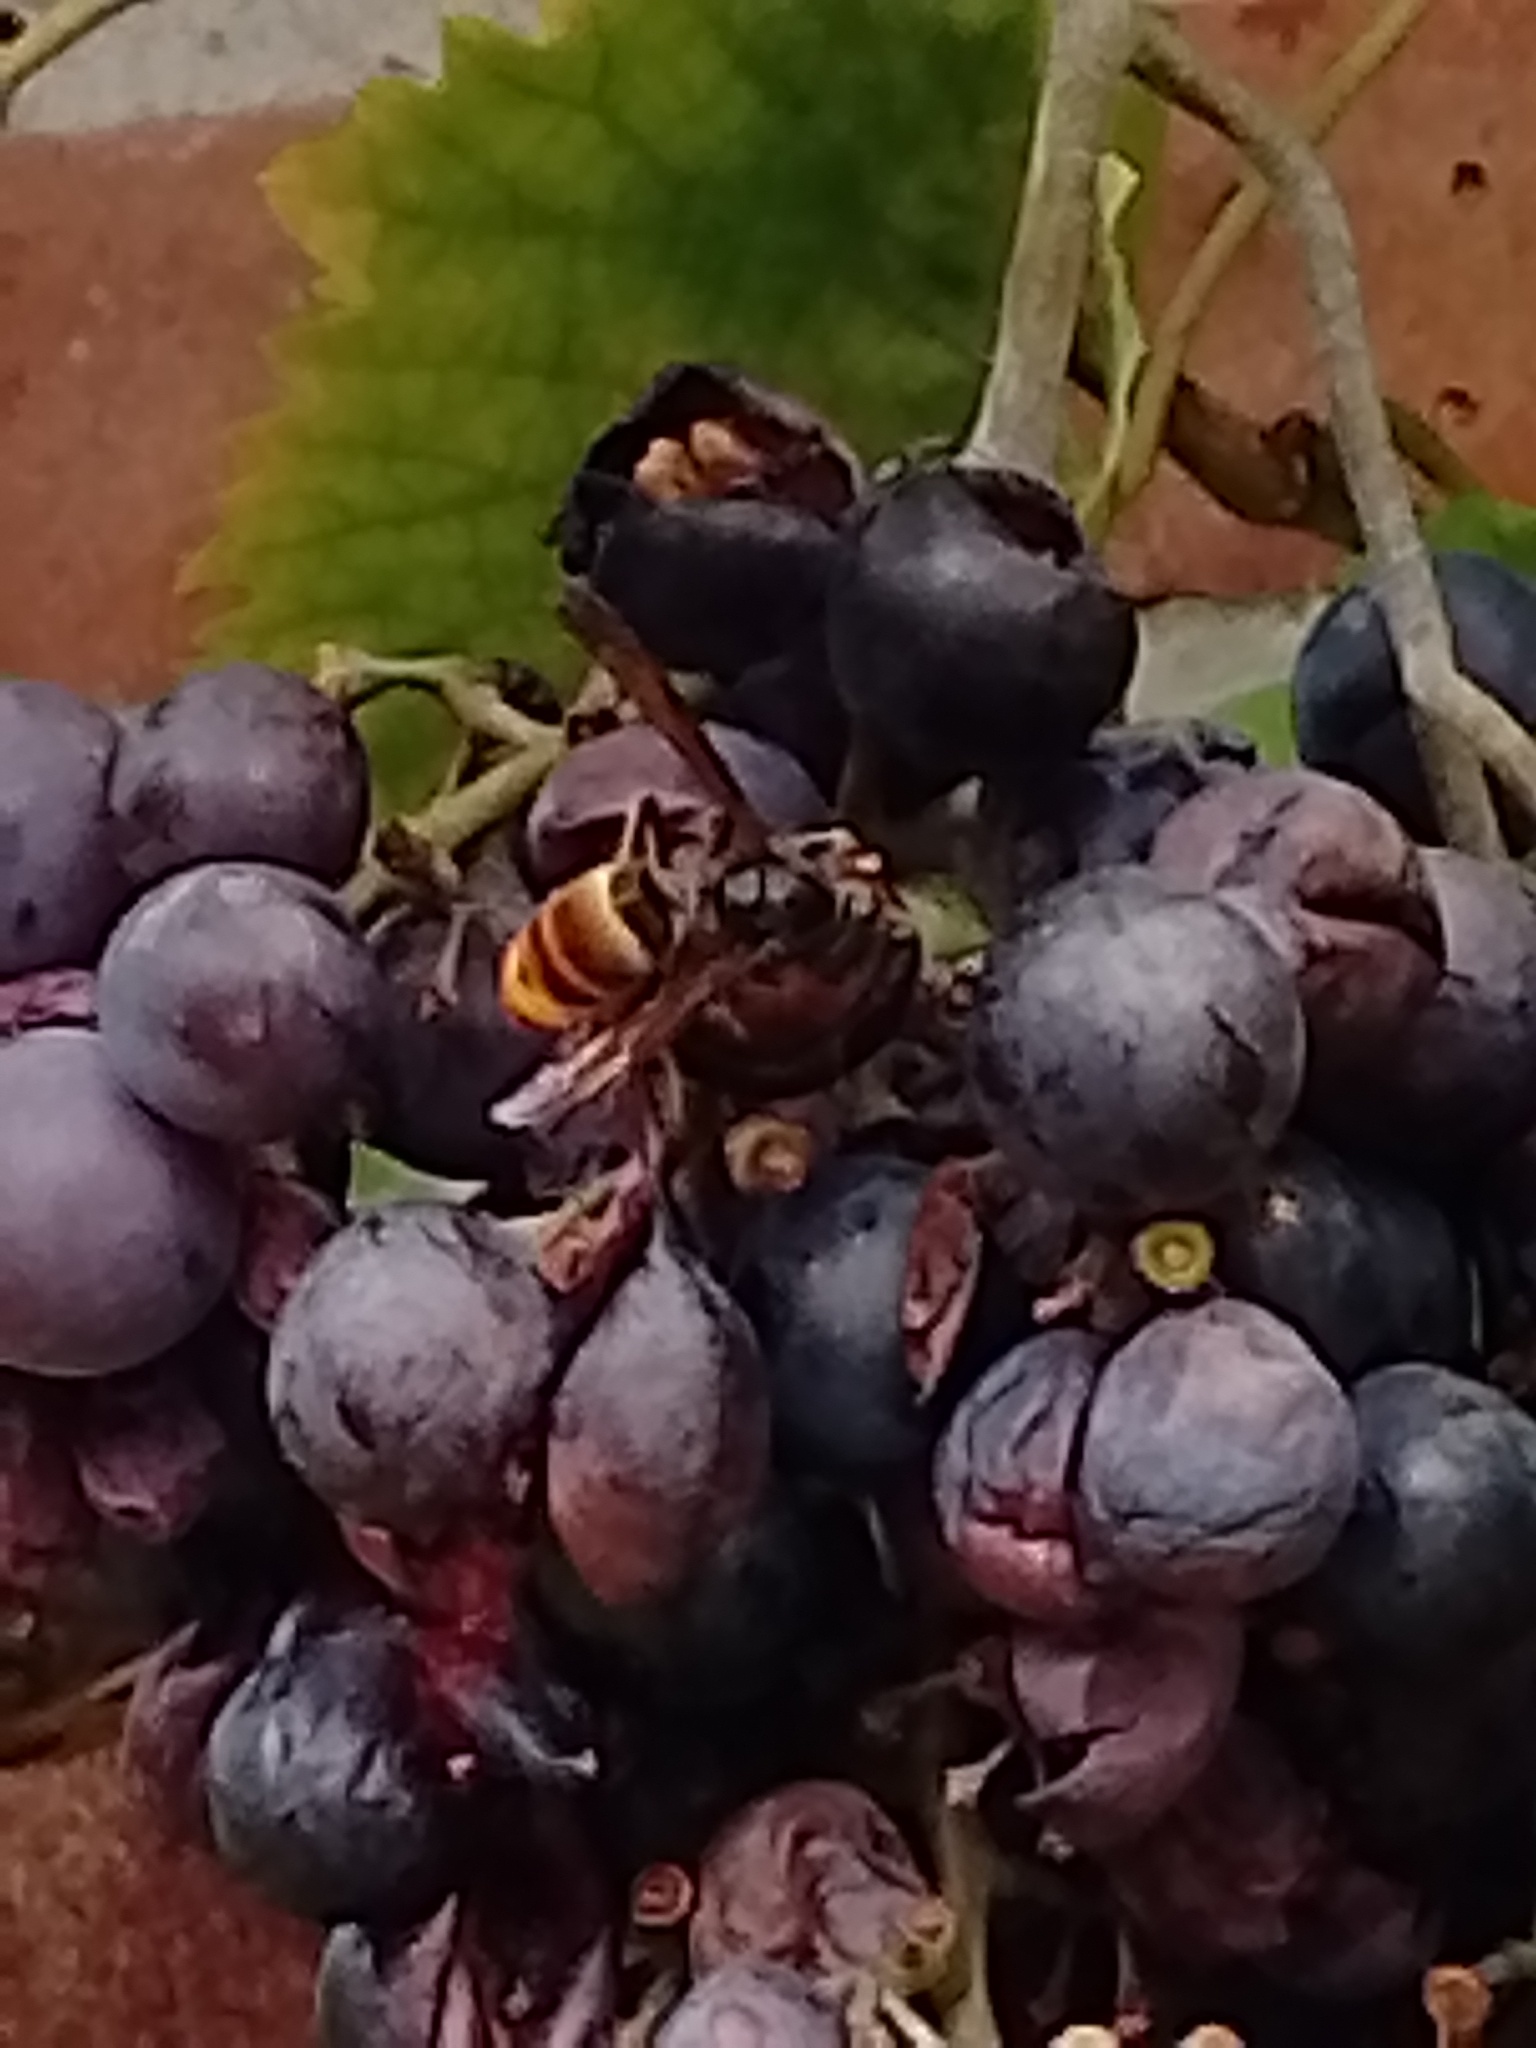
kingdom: Animalia
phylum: Arthropoda
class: Insecta
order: Hymenoptera
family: Vespidae
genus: Vespa
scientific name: Vespa velutina
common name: Asian hornet
